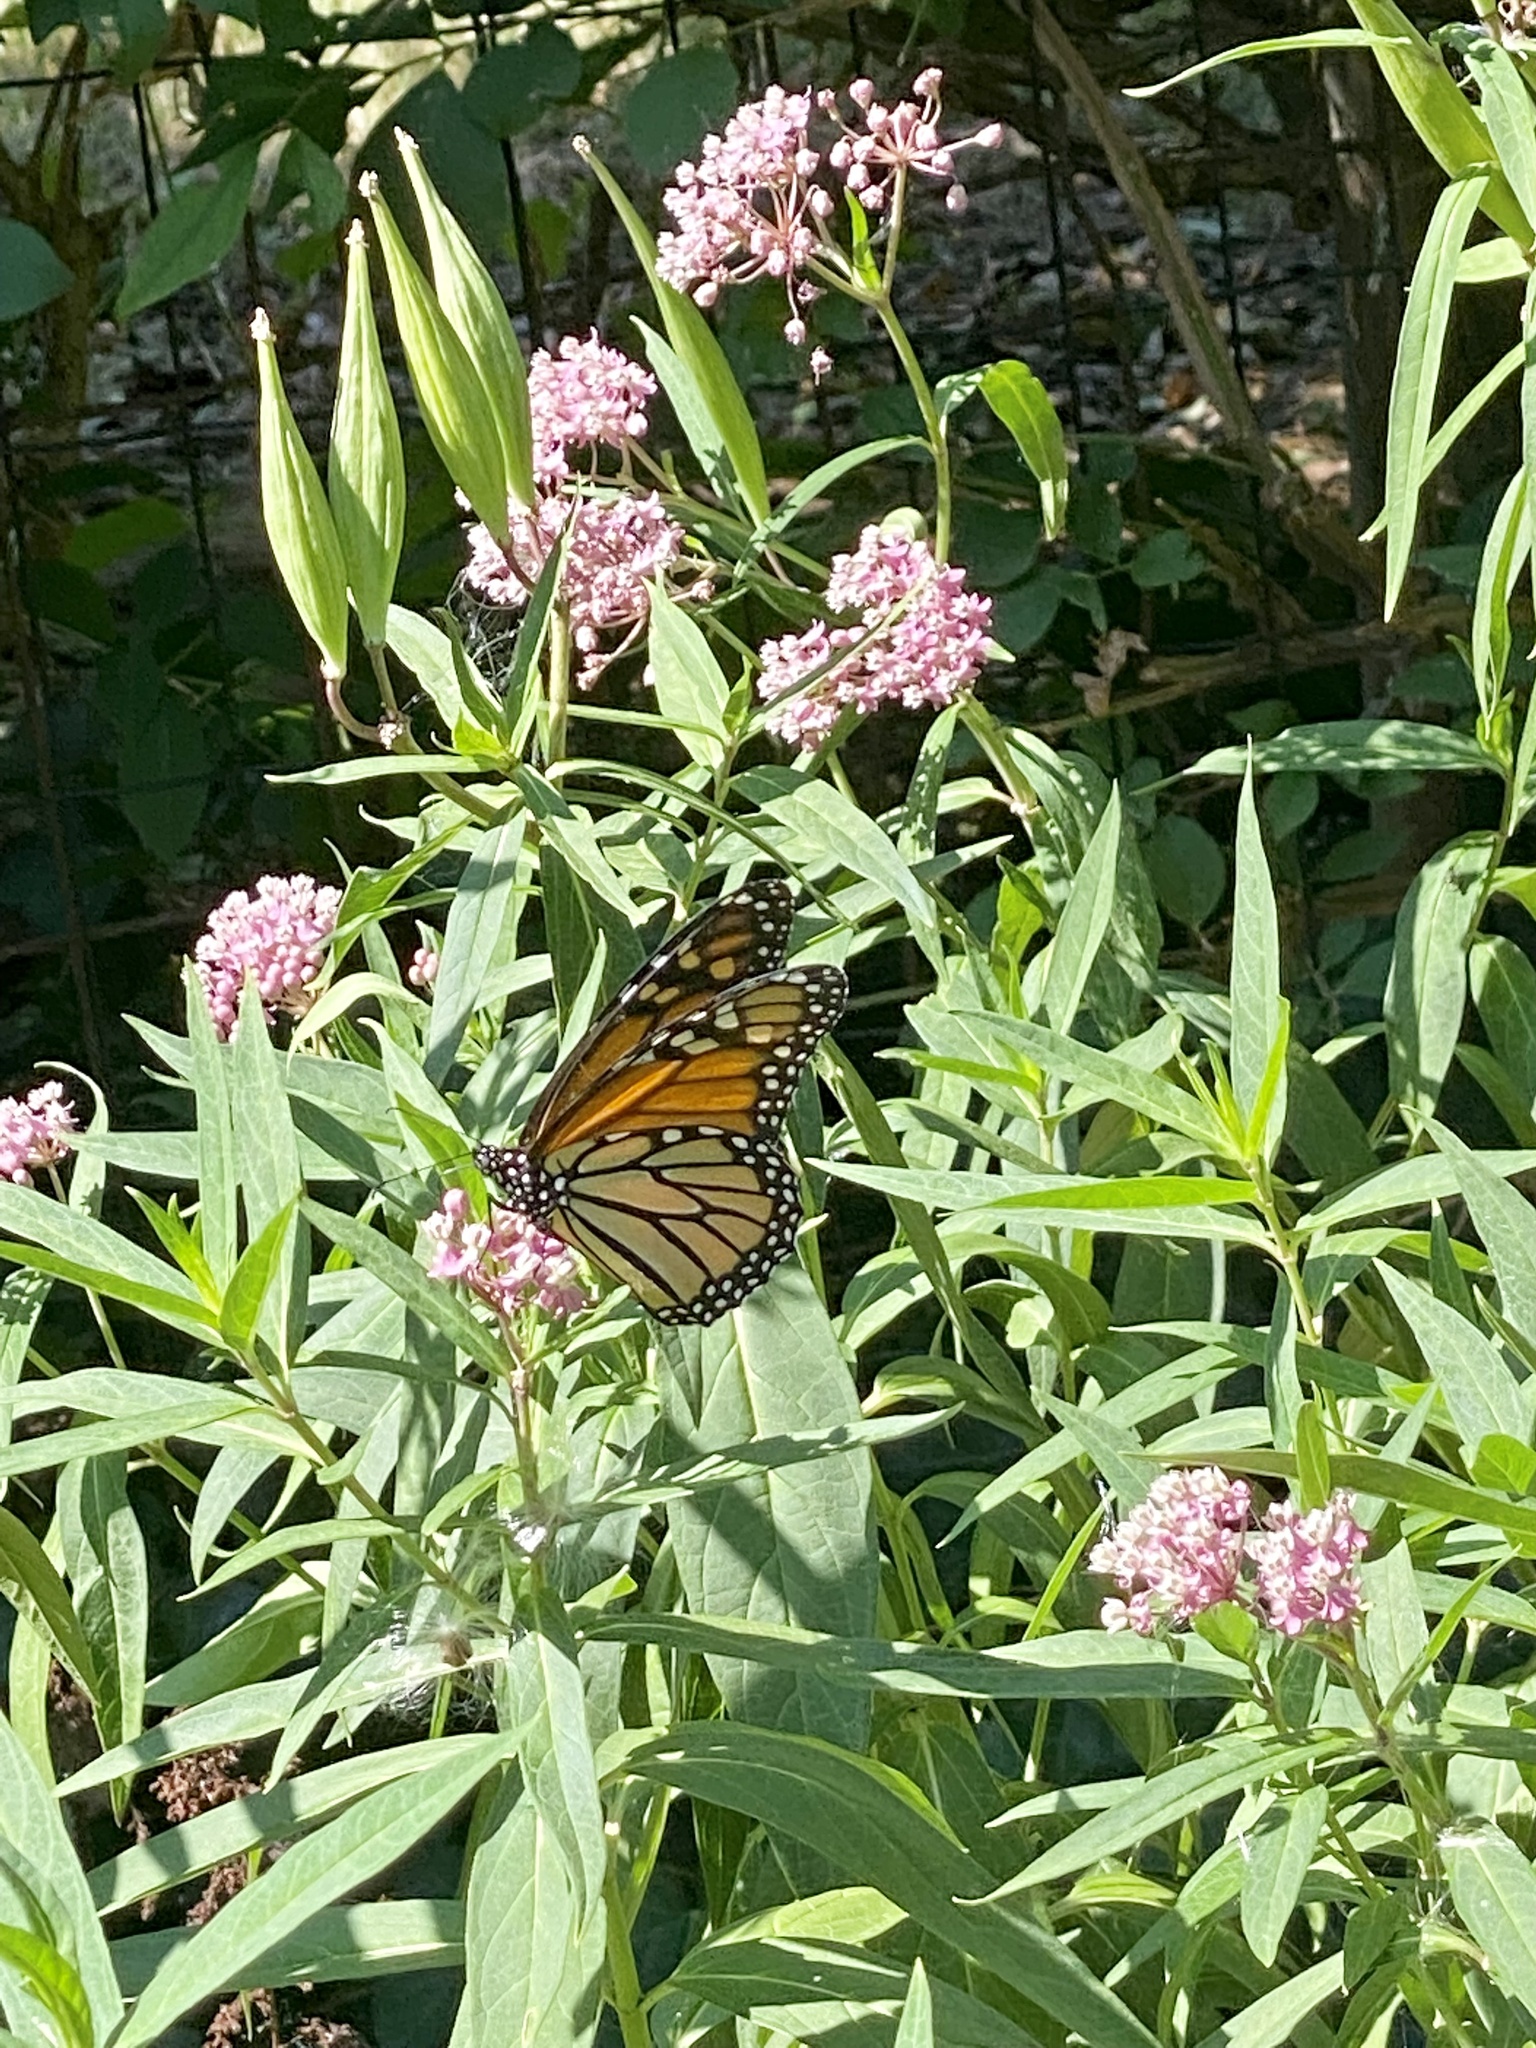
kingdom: Animalia
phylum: Arthropoda
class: Insecta
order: Lepidoptera
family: Nymphalidae
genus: Danaus
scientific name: Danaus plexippus
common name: Monarch
